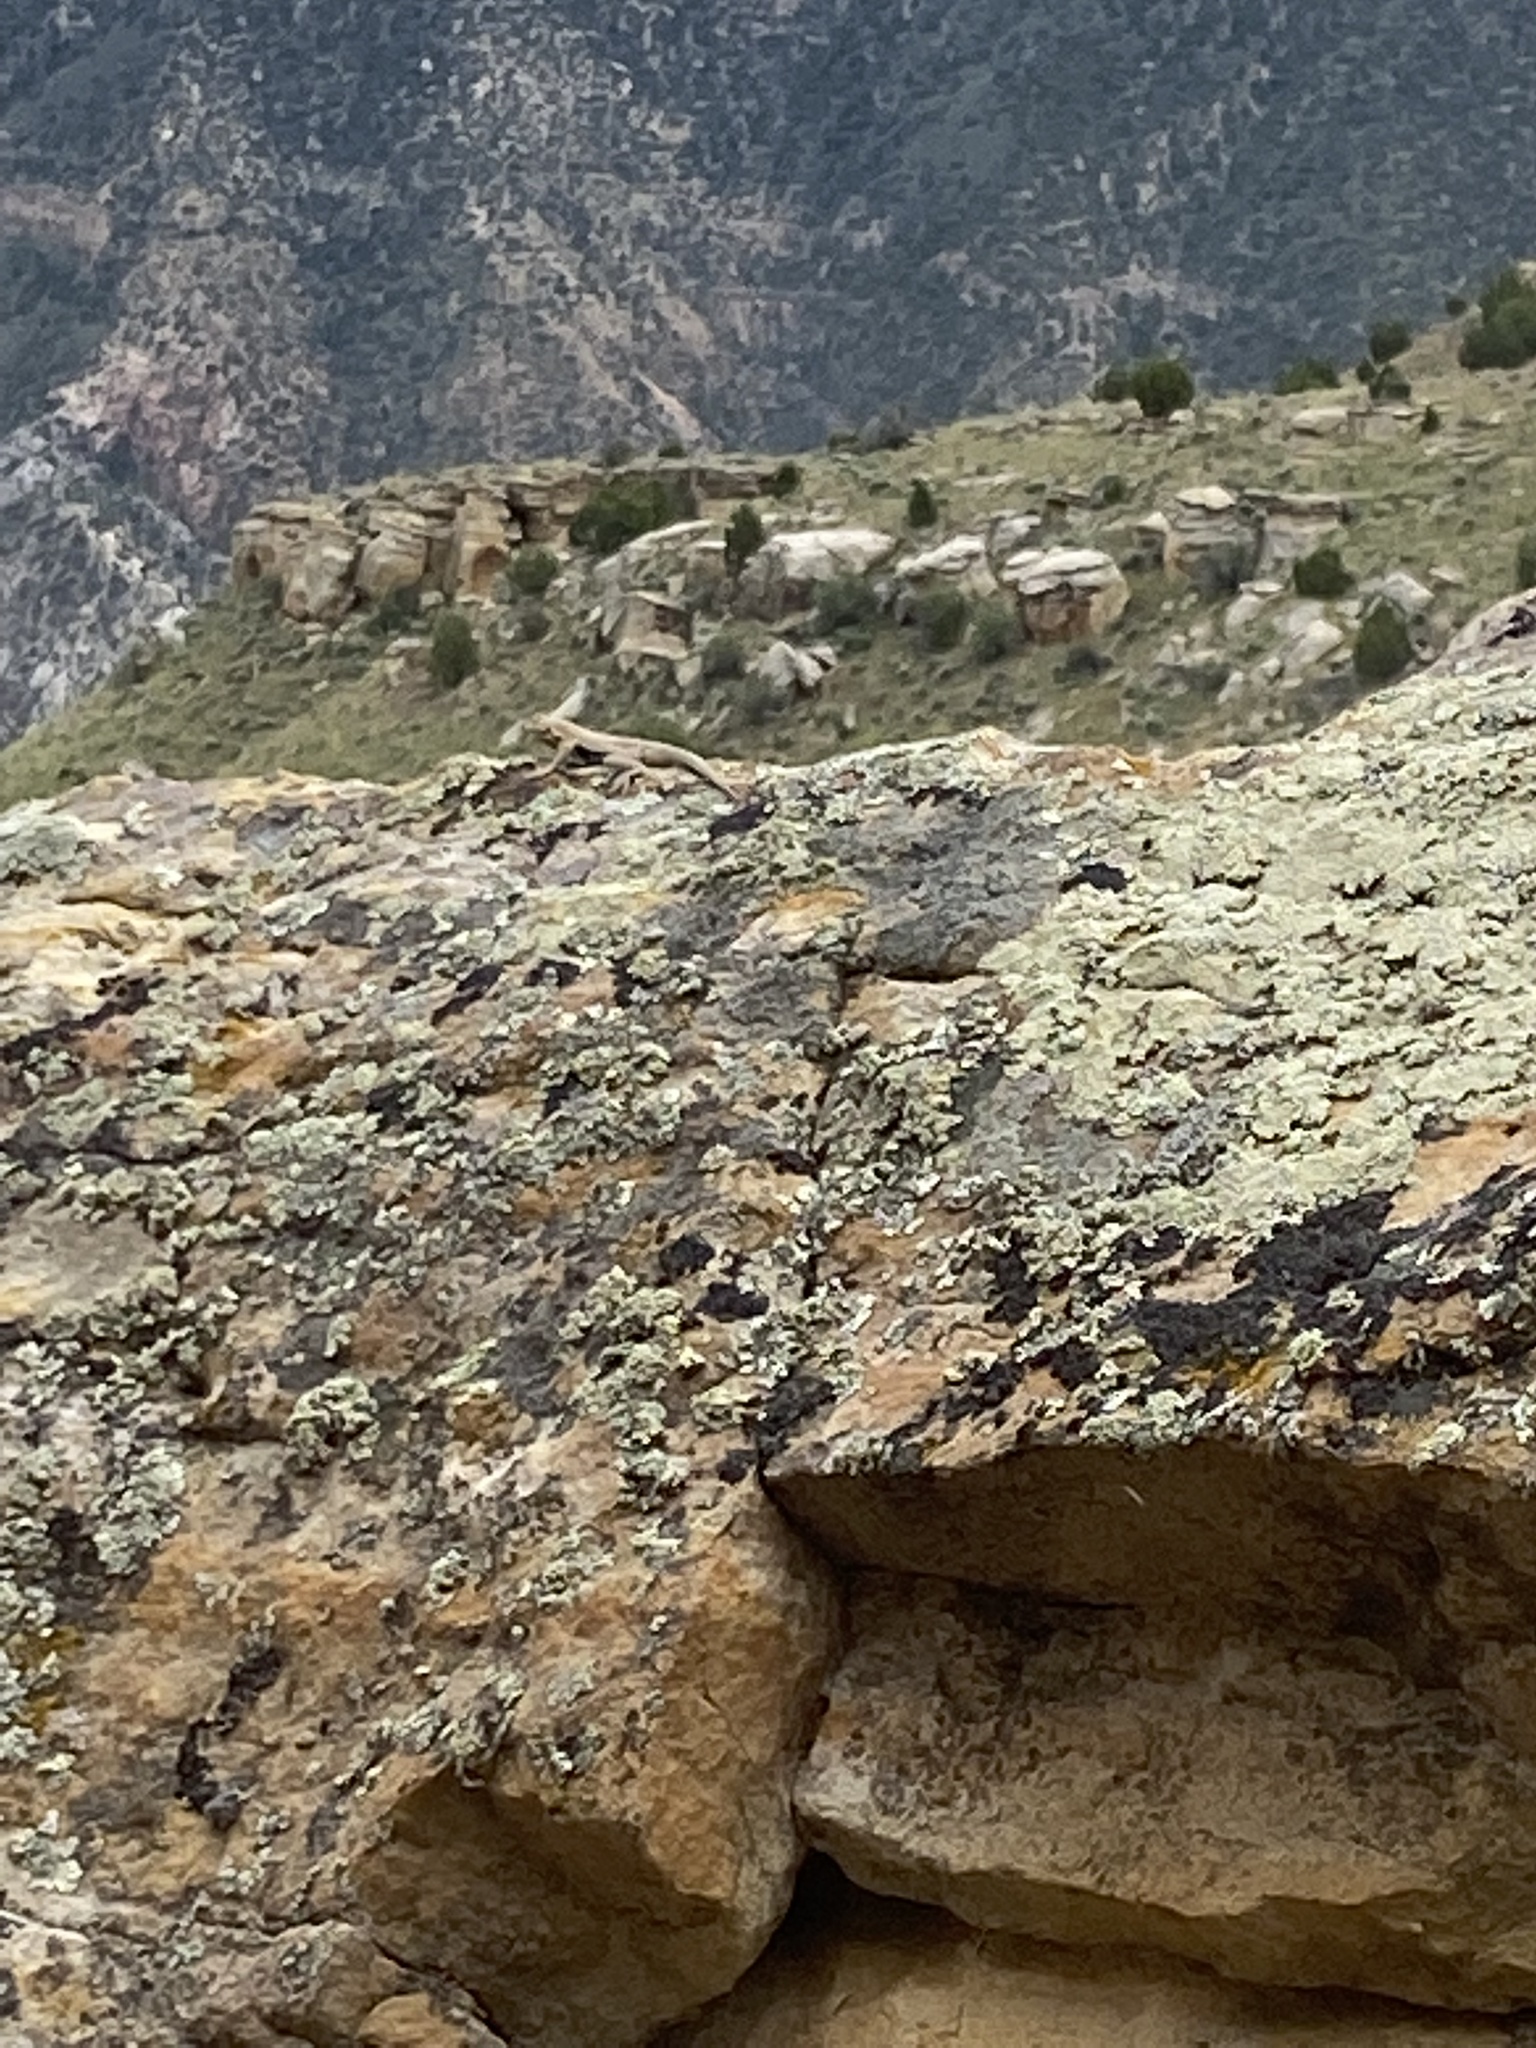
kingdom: Animalia
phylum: Chordata
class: Squamata
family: Phrynosomatidae
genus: Uta
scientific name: Uta stansburiana
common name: Side-blotched lizard
